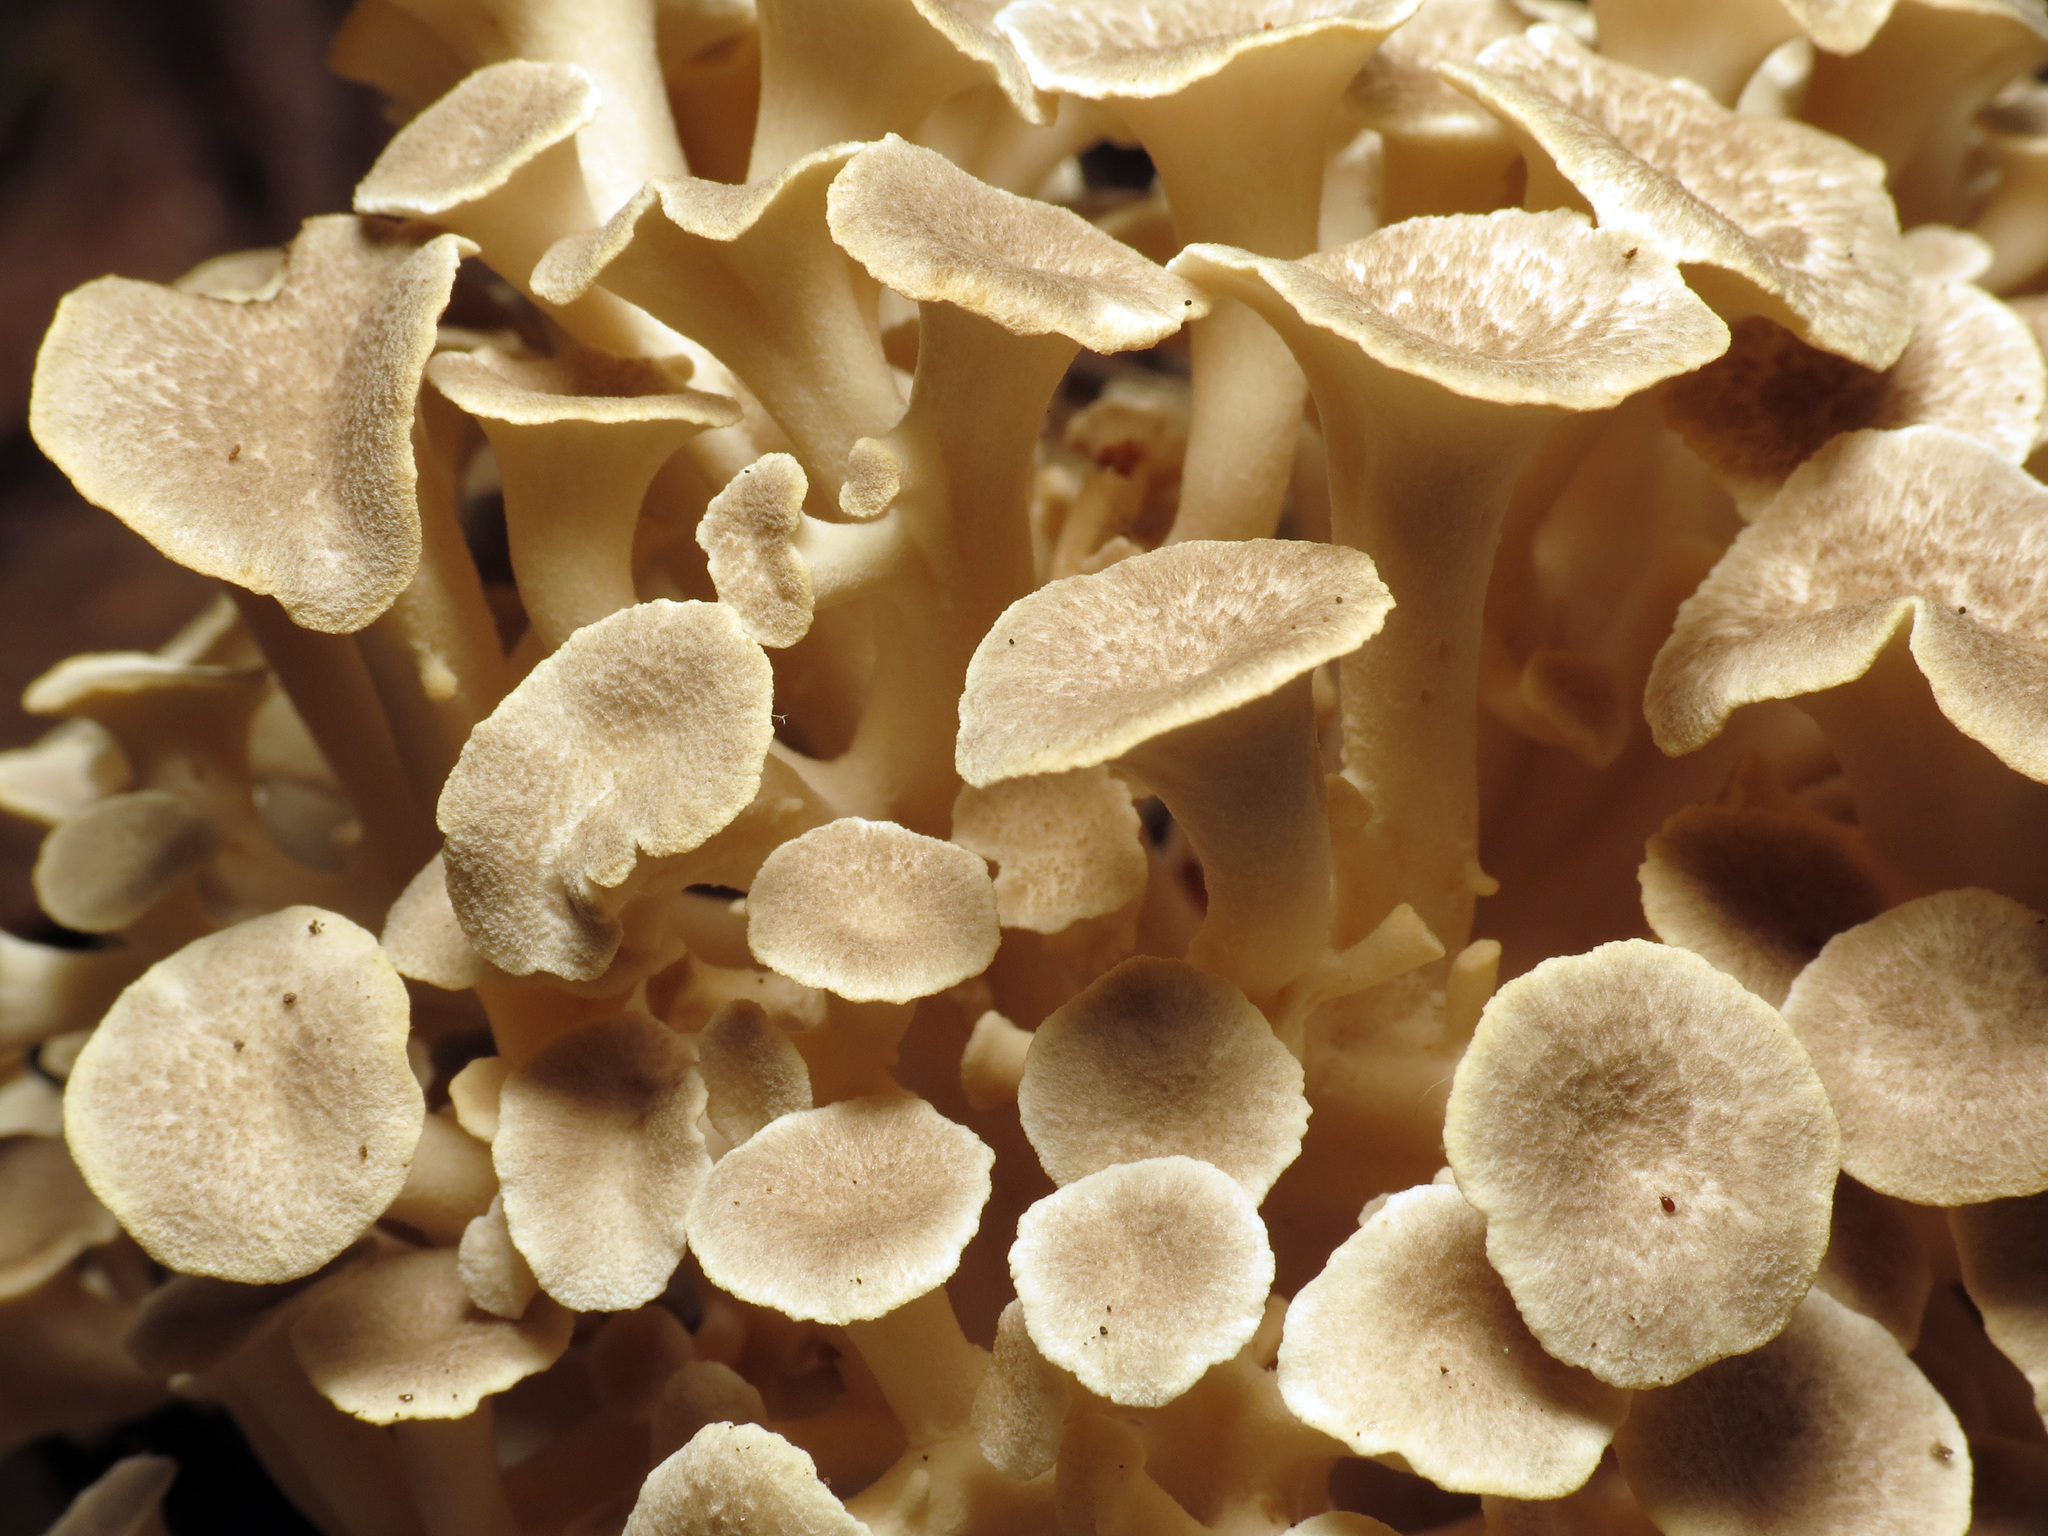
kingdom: Fungi
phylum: Basidiomycota
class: Agaricomycetes
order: Polyporales
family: Polyporaceae
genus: Polyporus
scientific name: Polyporus umbellatus
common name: Umbrella polypore
